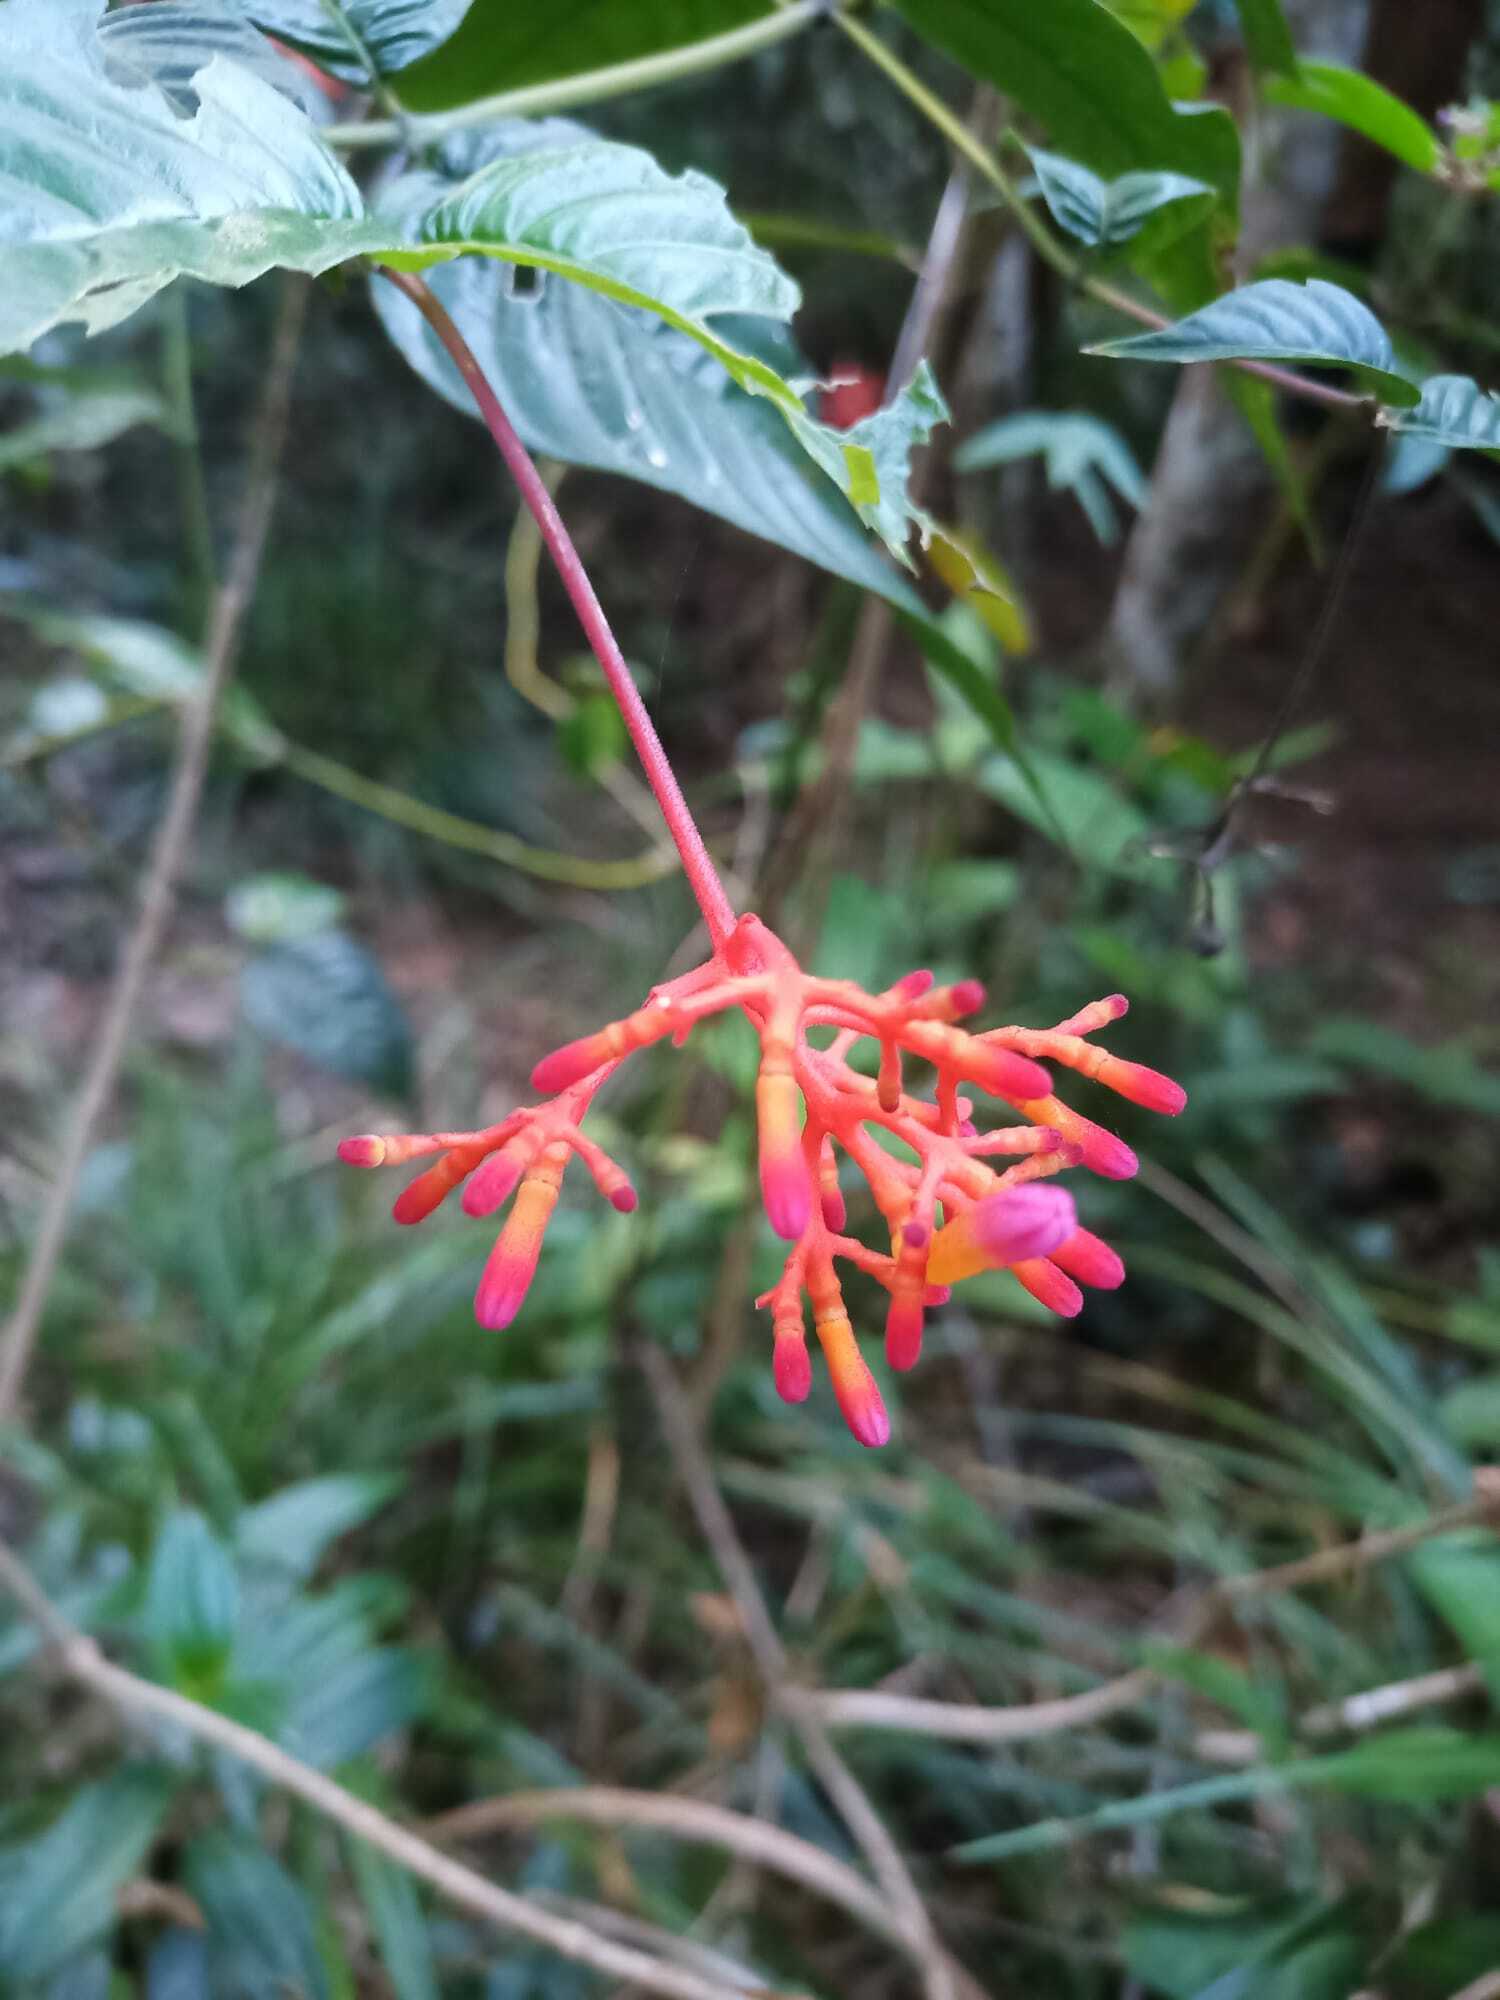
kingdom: Plantae
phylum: Tracheophyta
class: Magnoliopsida
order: Gentianales
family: Rubiaceae
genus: Palicourea
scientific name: Palicourea longiflora
